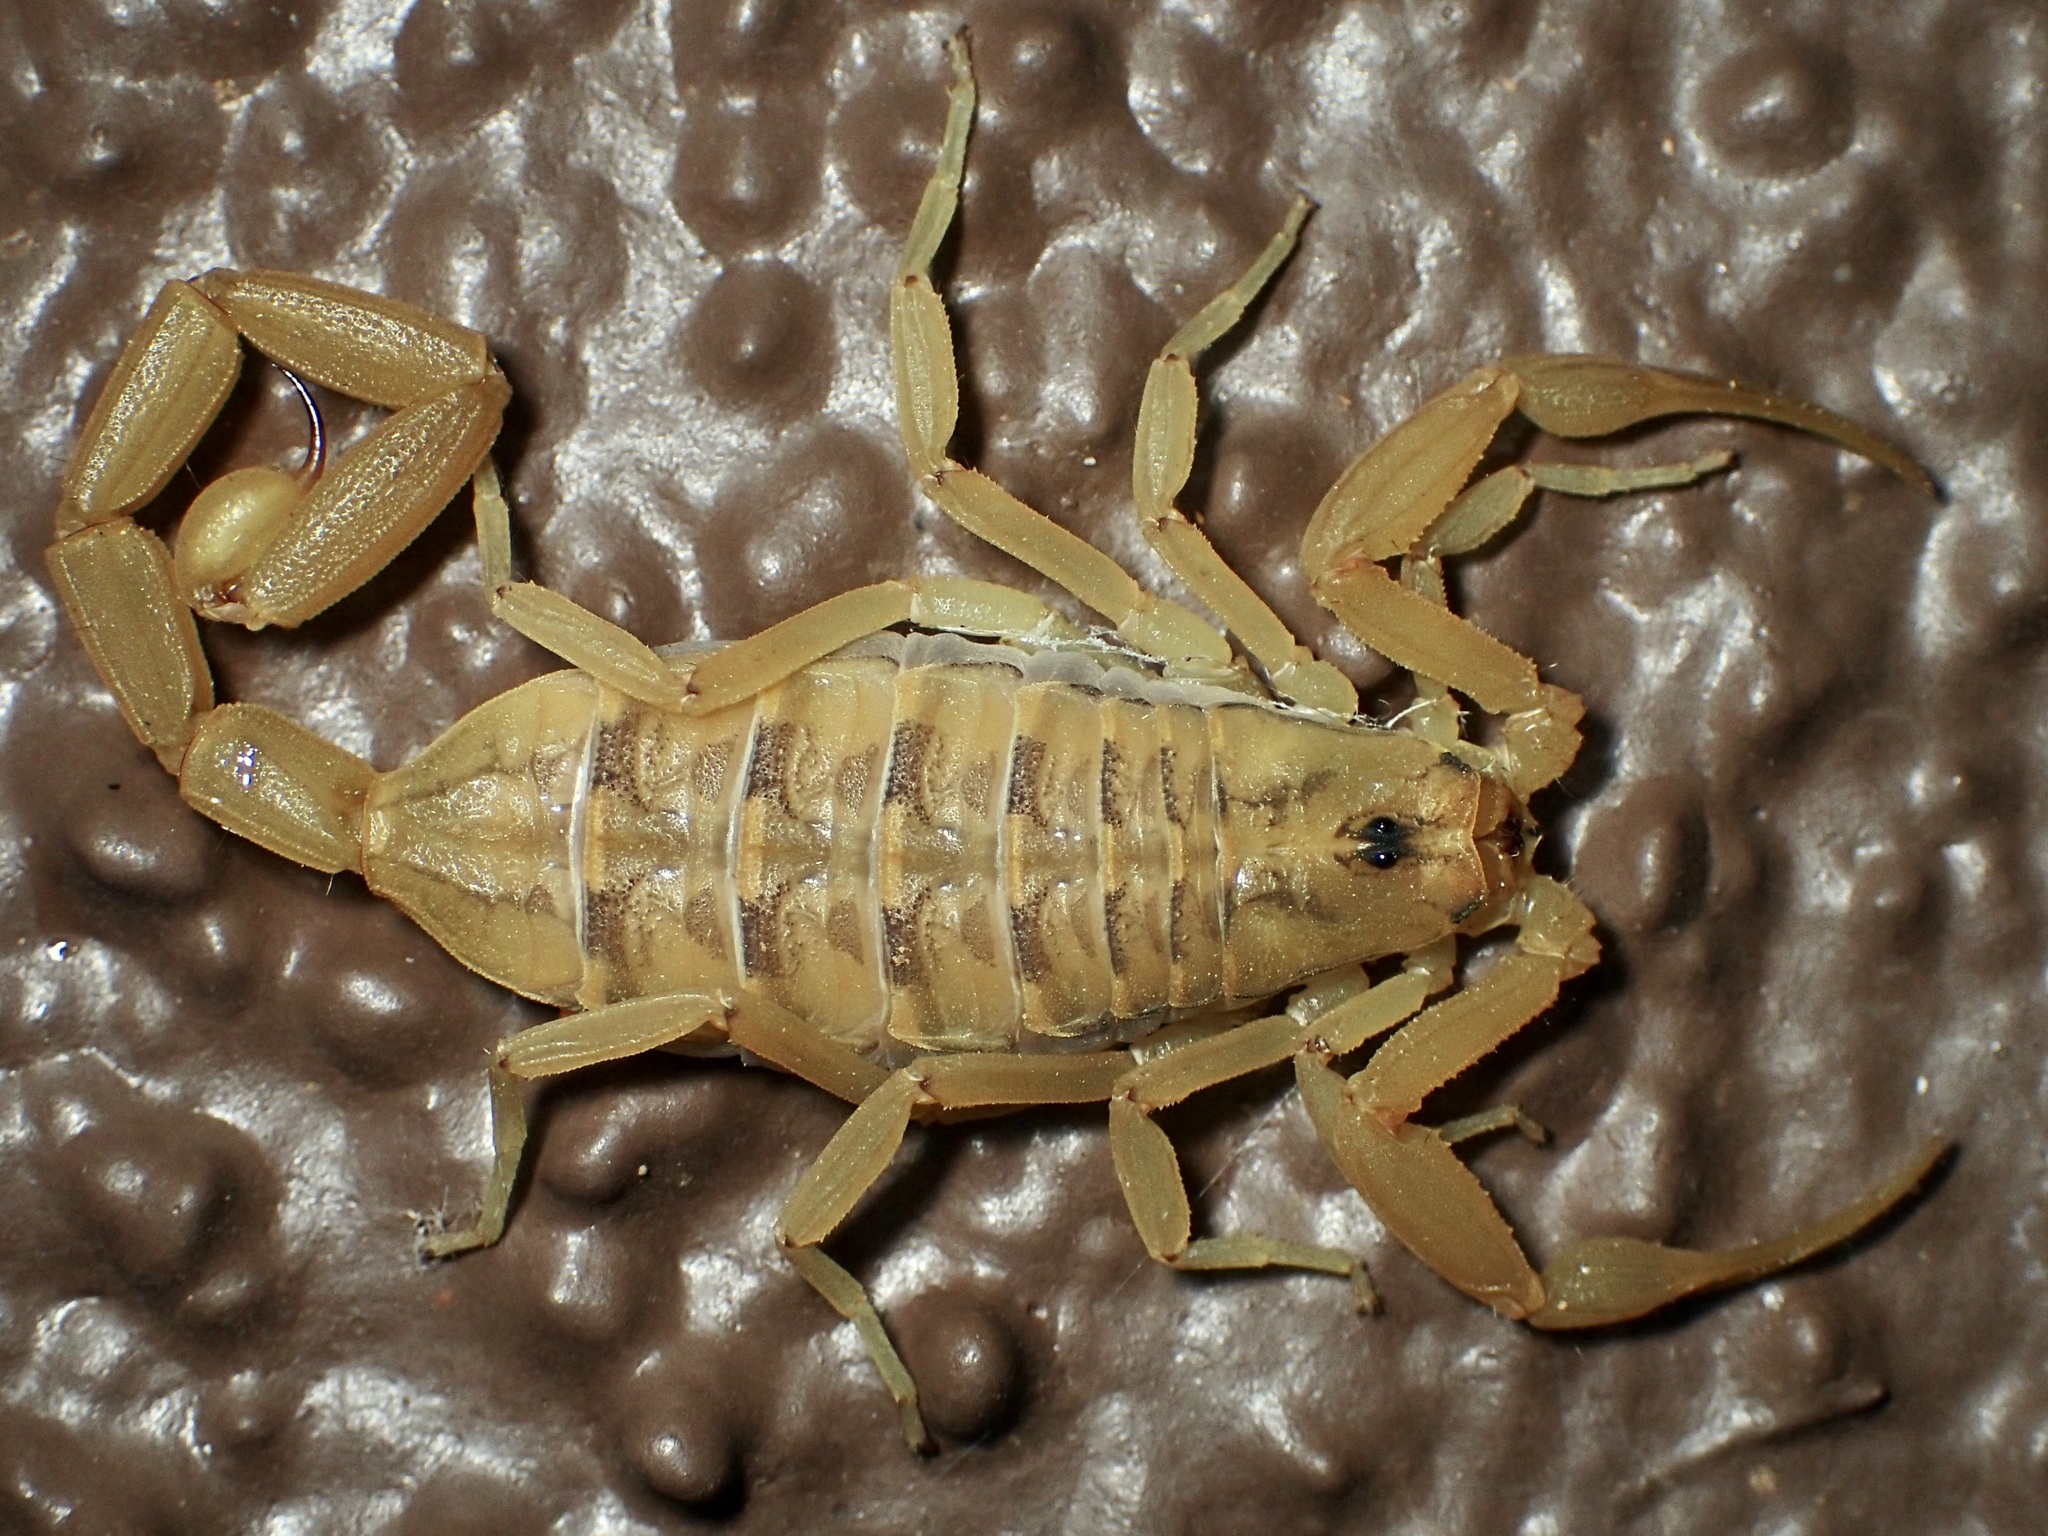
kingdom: Animalia
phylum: Arthropoda
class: Arachnida
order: Scorpiones
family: Buthidae
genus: Centruroides
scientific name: Centruroides sculpturatus
